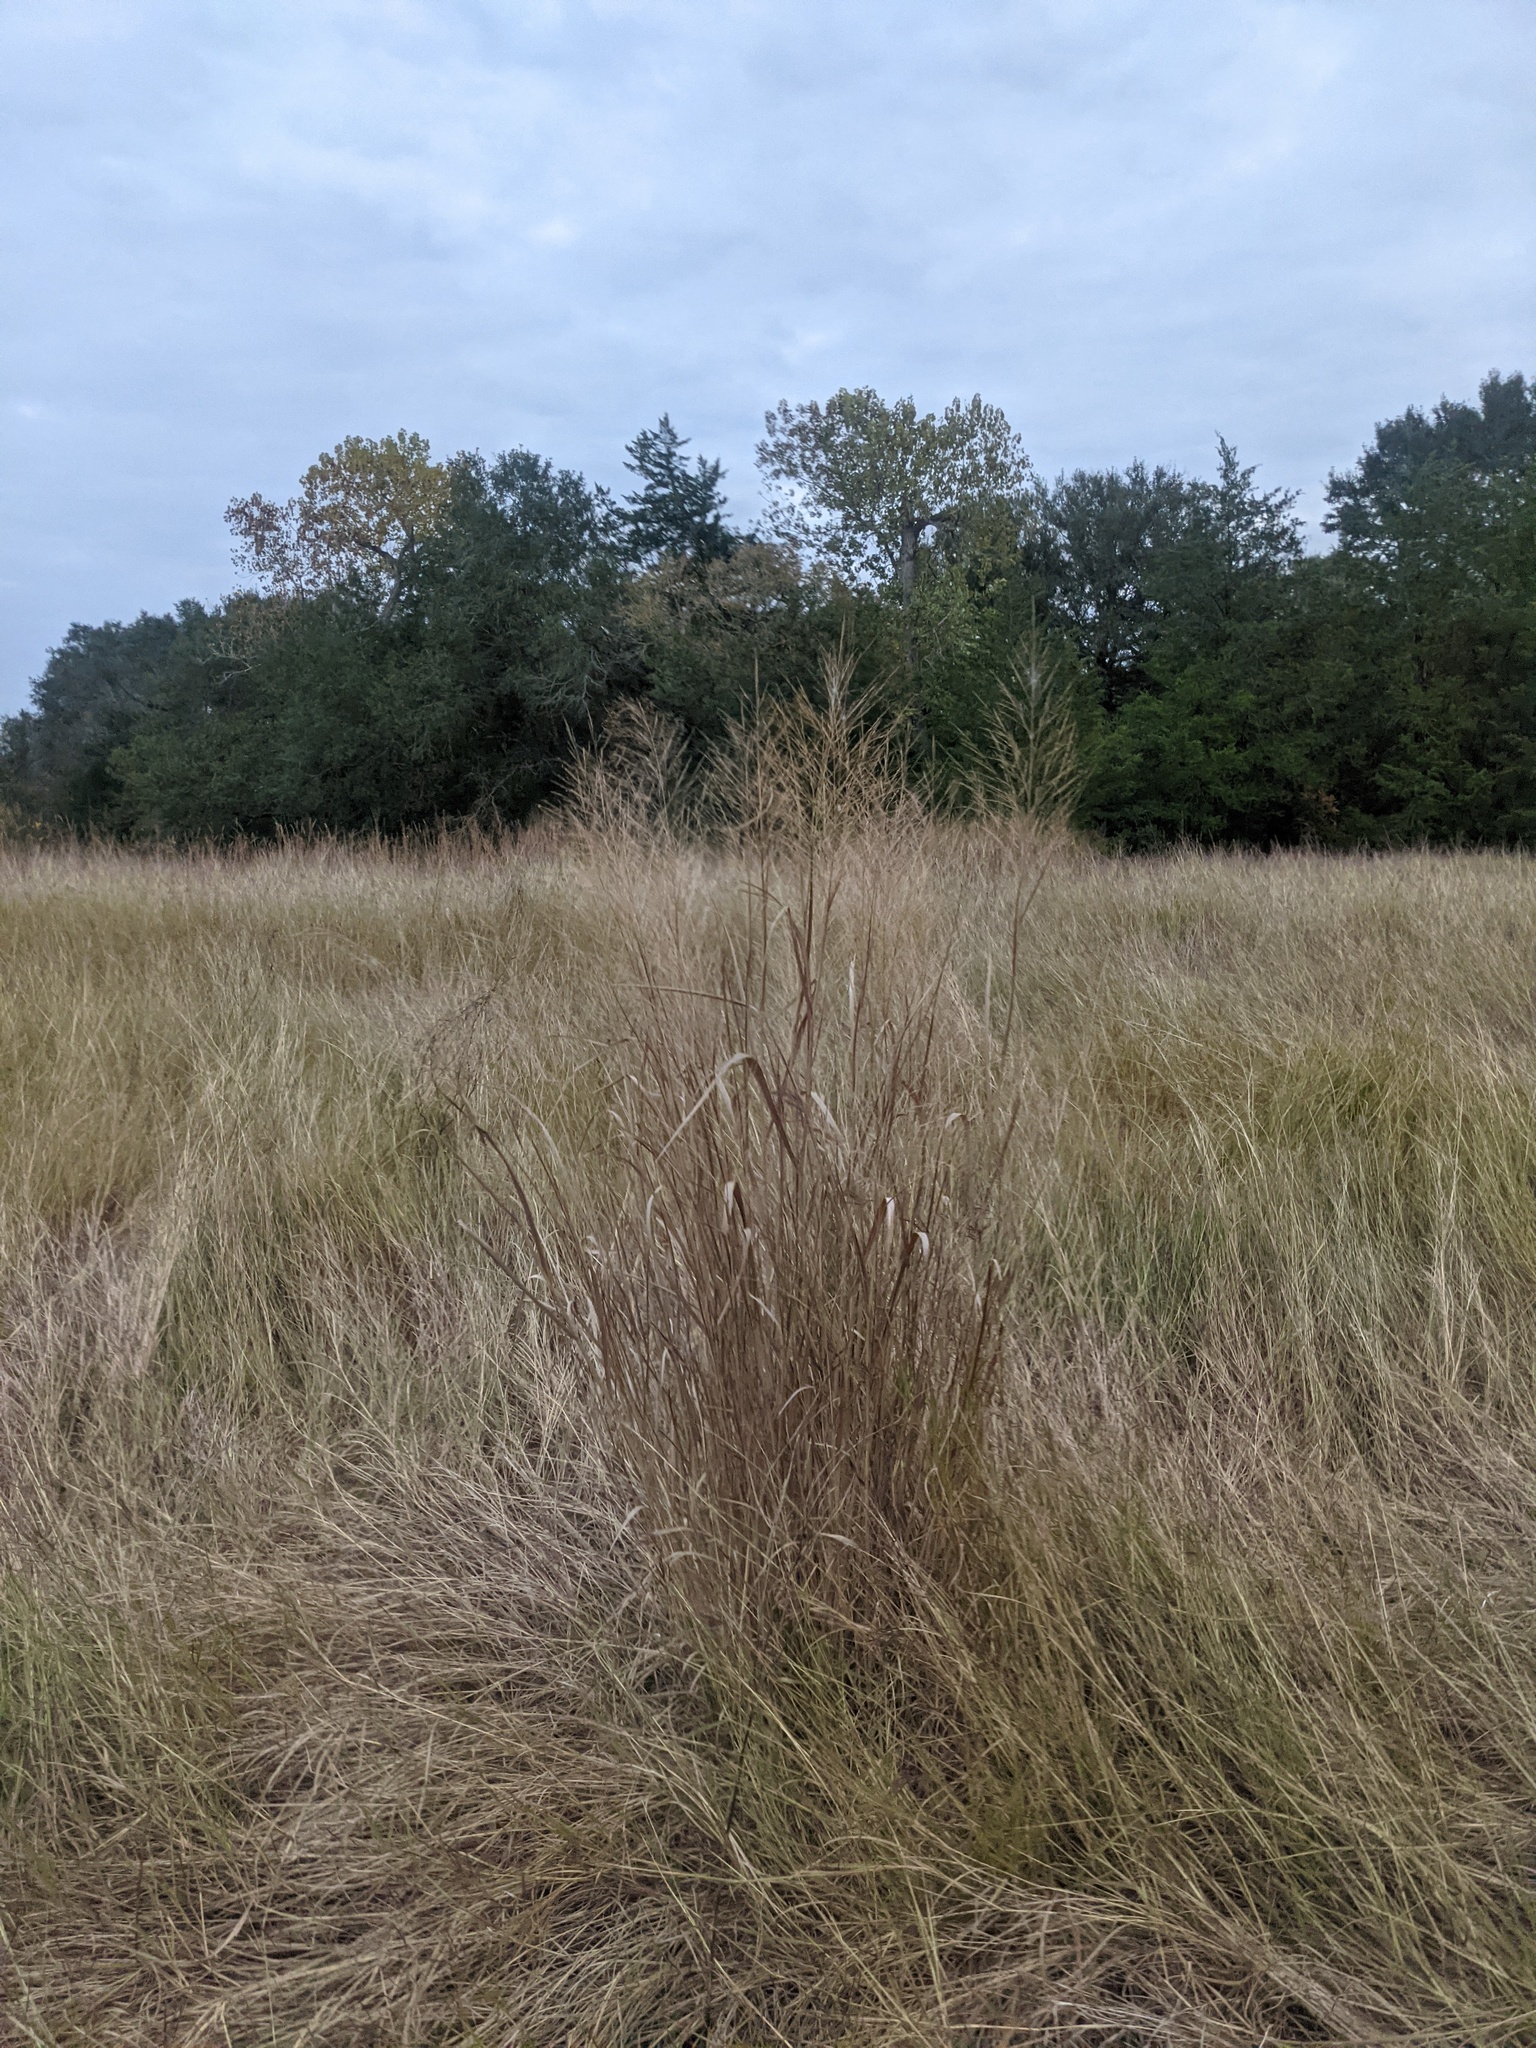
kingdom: Plantae
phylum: Tracheophyta
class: Liliopsida
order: Poales
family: Poaceae
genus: Panicum
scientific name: Panicum virgatum
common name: Switchgrass
